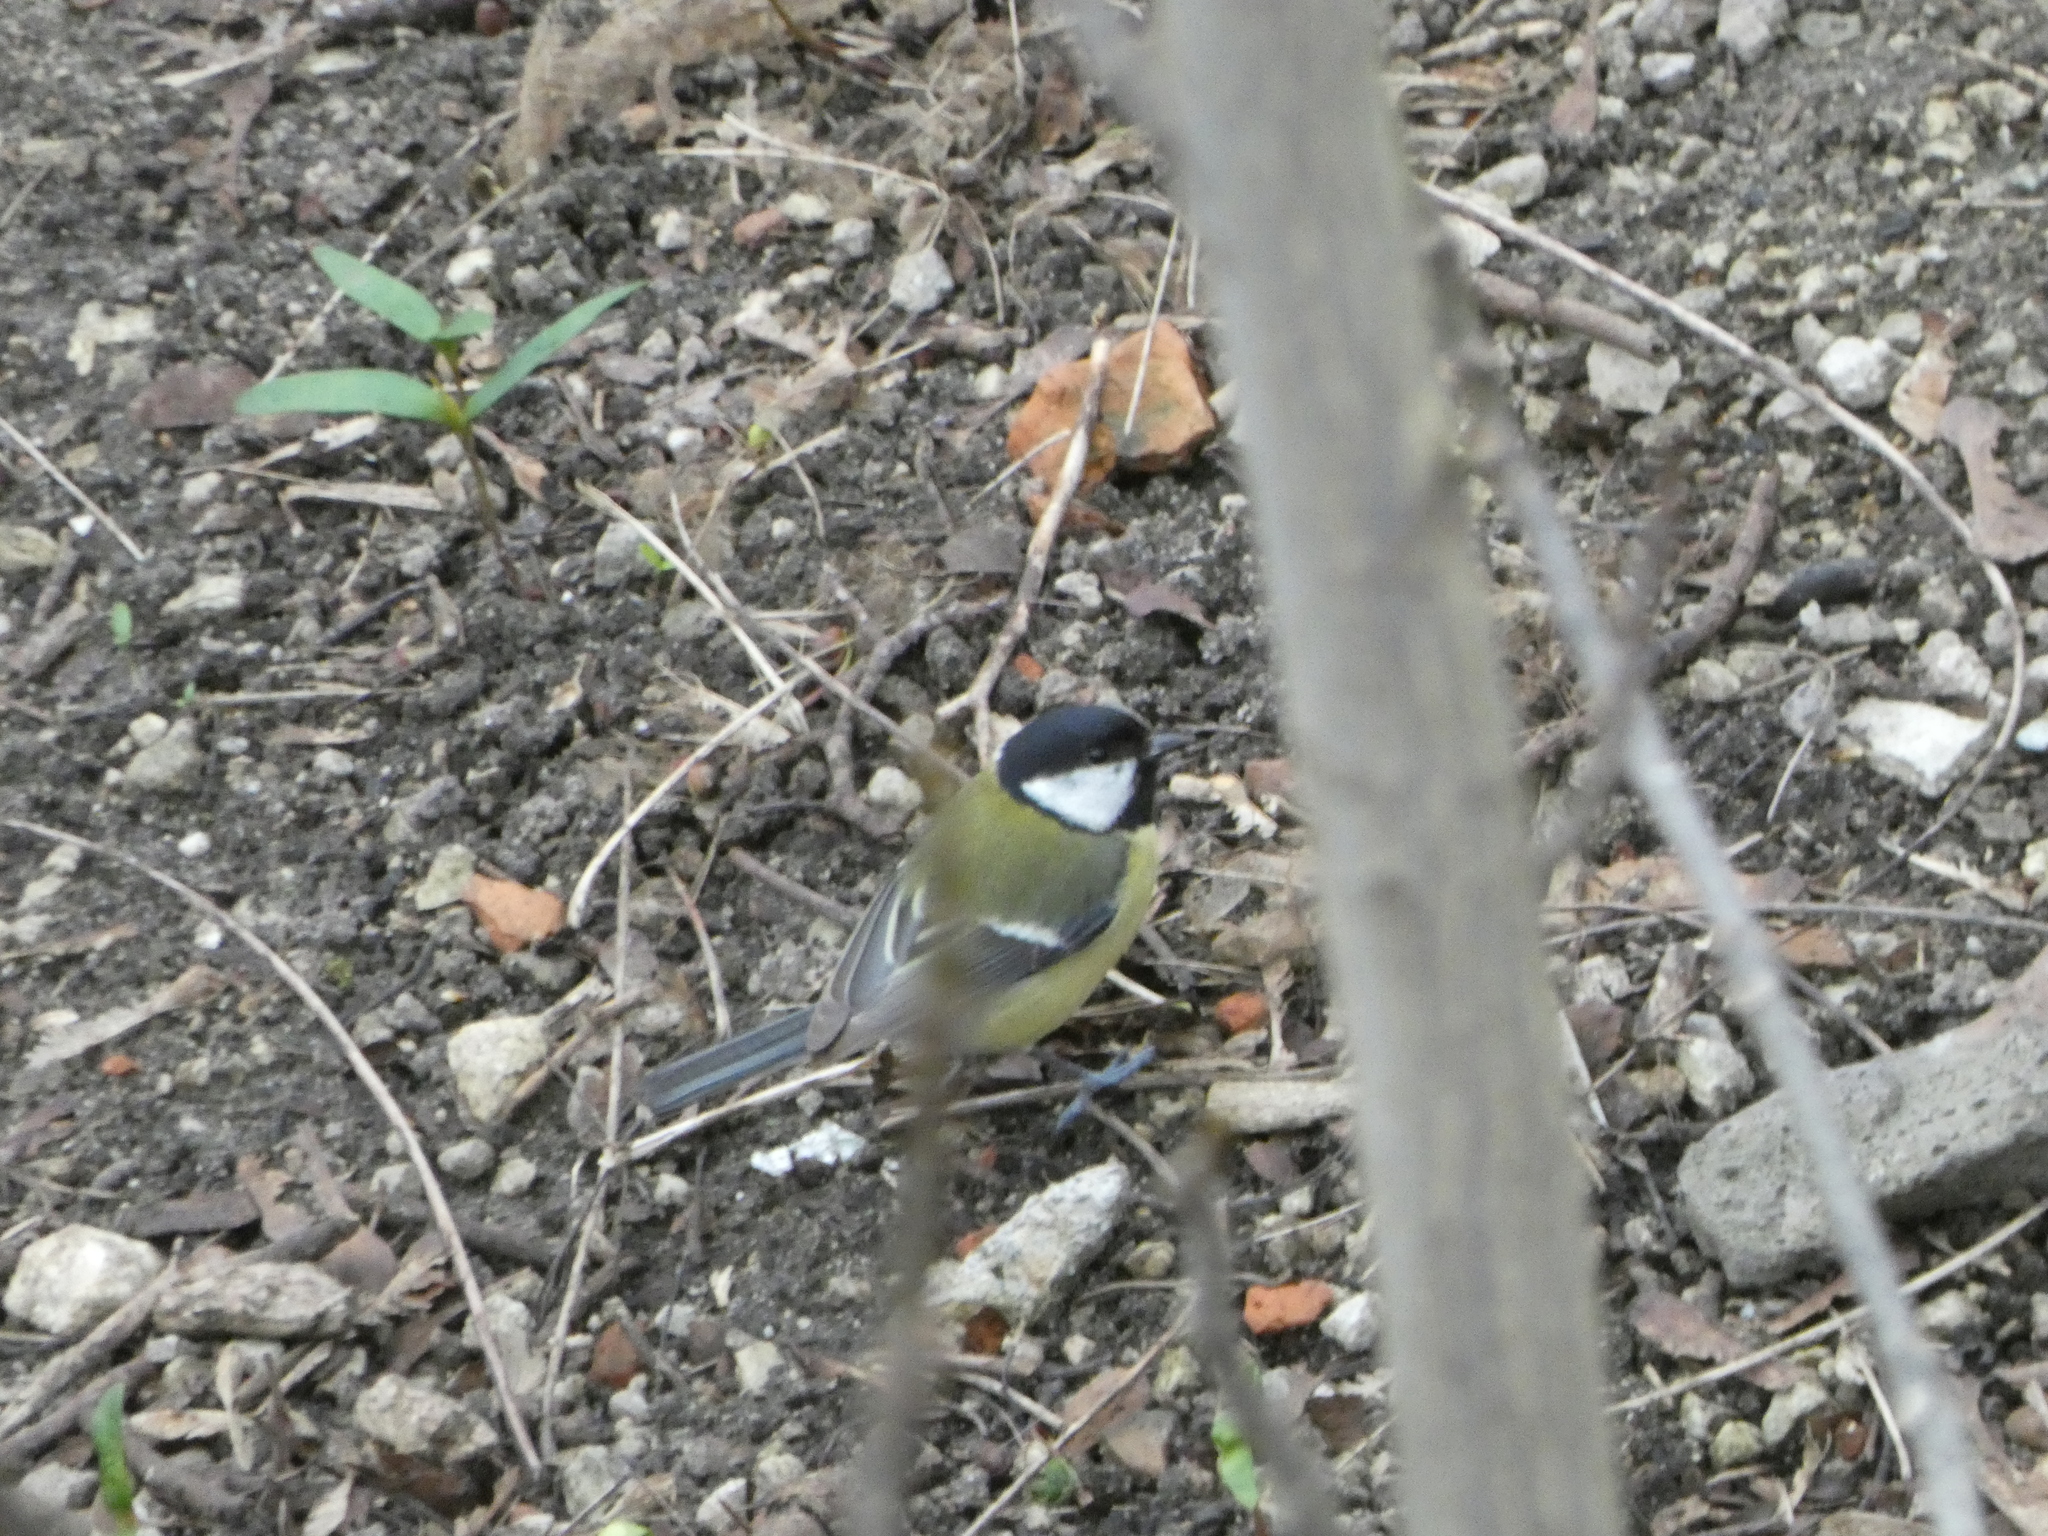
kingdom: Animalia
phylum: Chordata
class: Aves
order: Passeriformes
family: Paridae
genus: Parus
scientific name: Parus major
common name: Great tit
